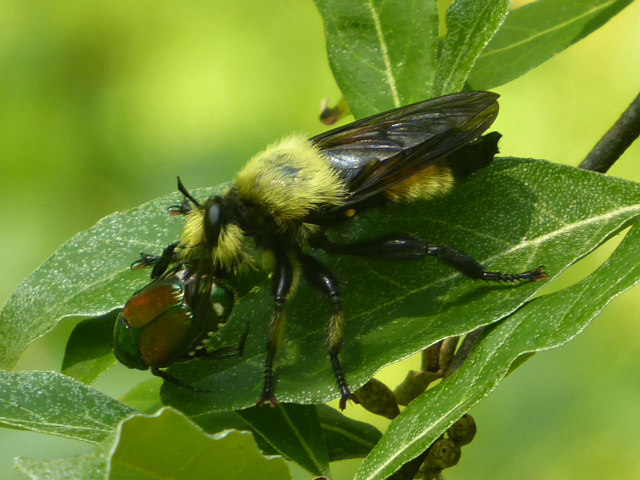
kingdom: Animalia
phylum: Arthropoda
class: Insecta
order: Diptera
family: Asilidae
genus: Laphria
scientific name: Laphria grossa
